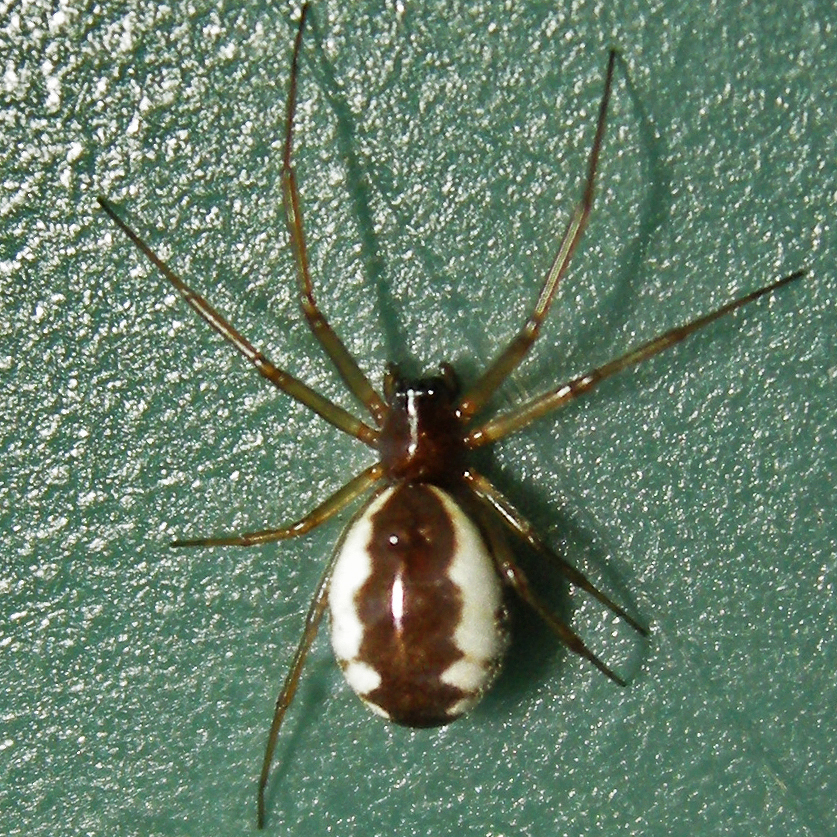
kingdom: Animalia
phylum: Arthropoda
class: Arachnida
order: Araneae
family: Linyphiidae
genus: Frontinella
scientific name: Frontinella pyramitela
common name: Bowl-and-doily spider
